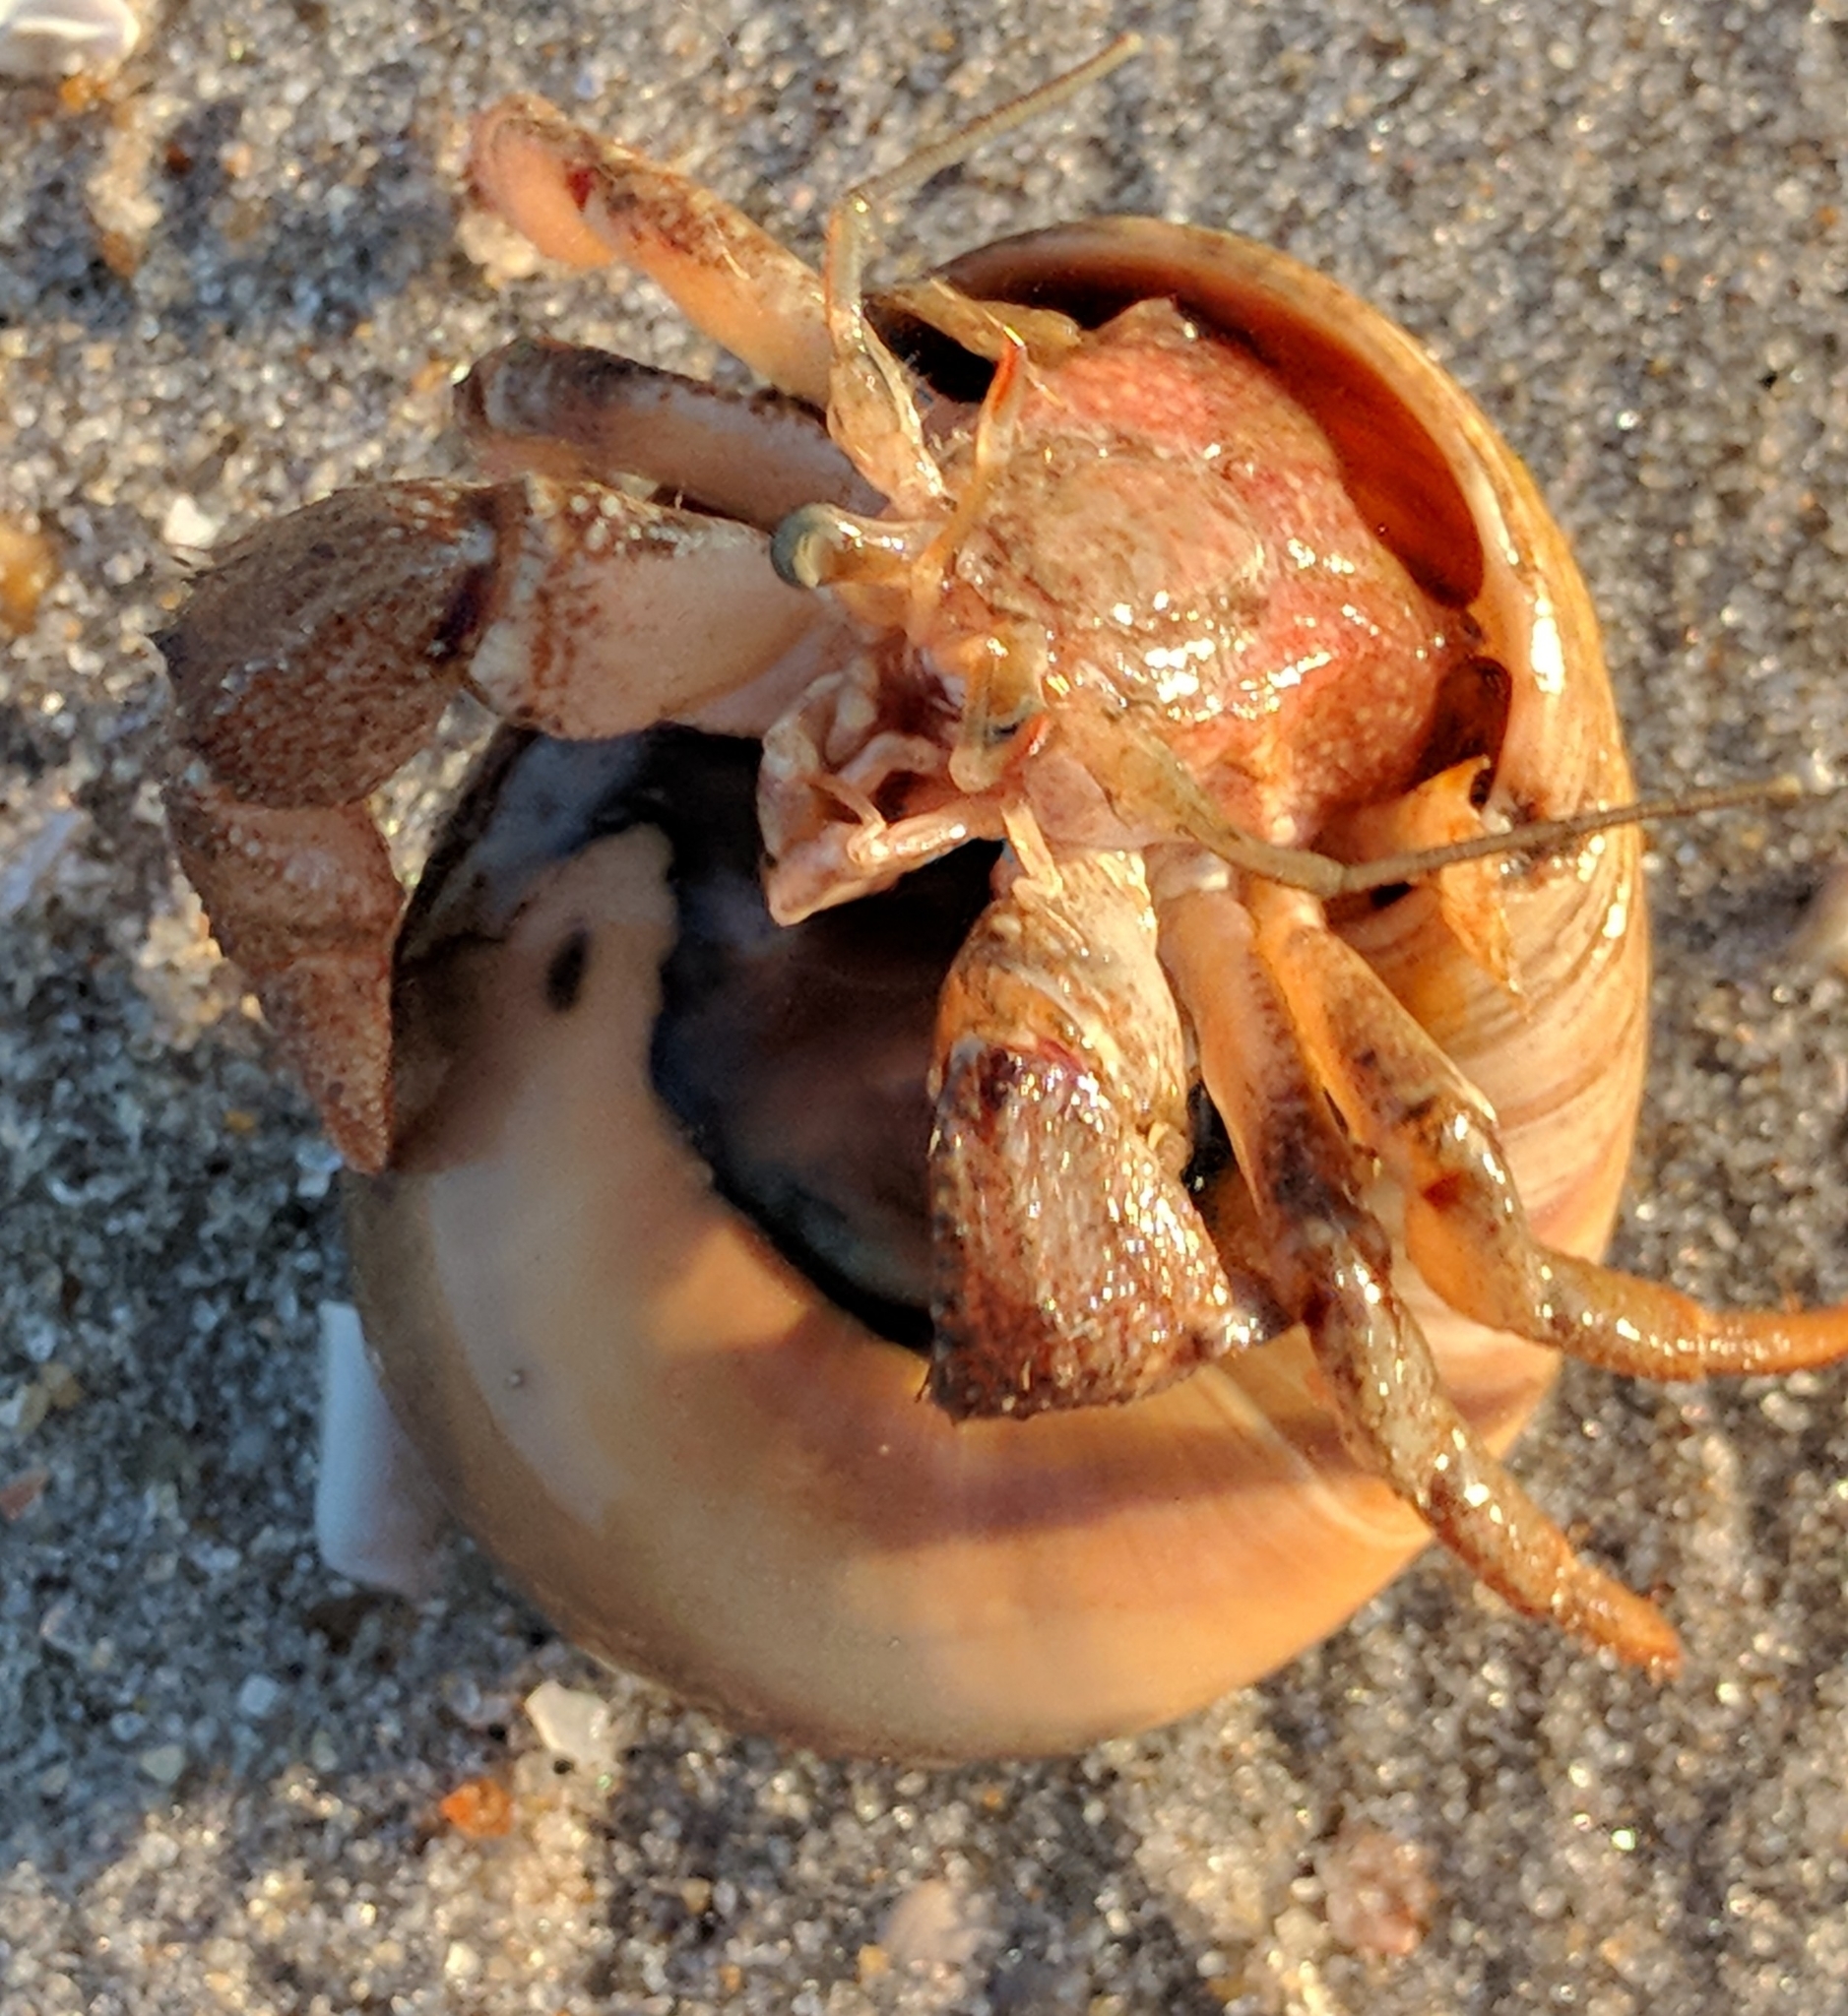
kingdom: Animalia
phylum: Arthropoda
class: Malacostraca
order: Decapoda
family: Paguridae
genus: Pagurus
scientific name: Pagurus pollicaris
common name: Flatclaw hermit
